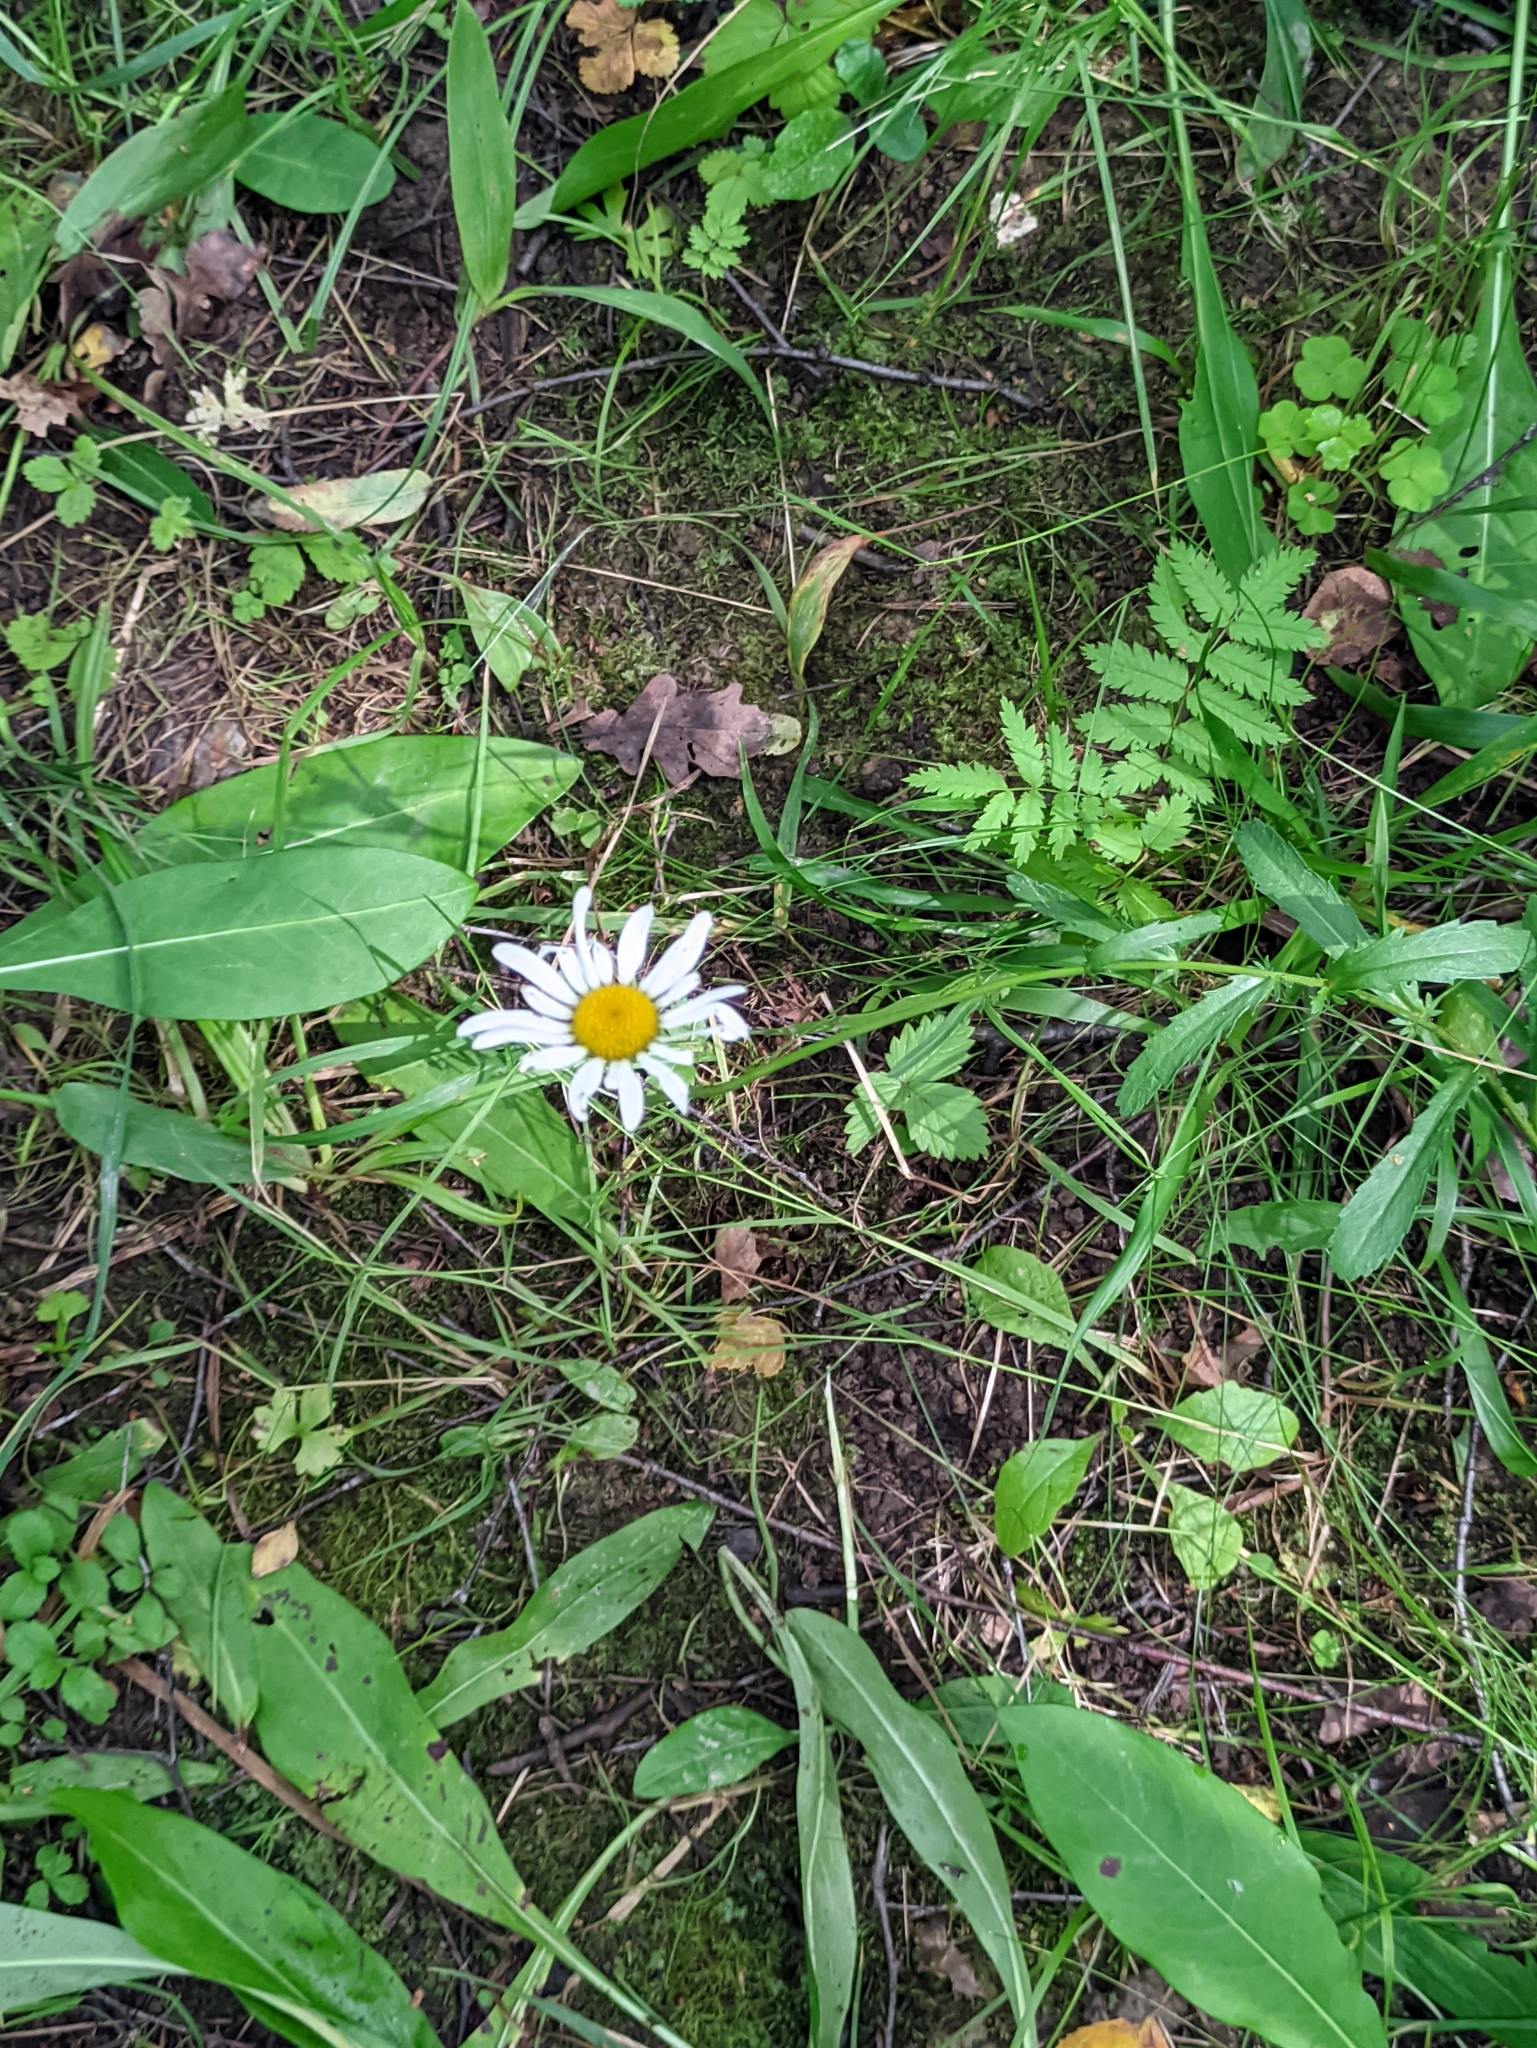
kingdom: Plantae
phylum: Tracheophyta
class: Magnoliopsida
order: Asterales
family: Asteraceae
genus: Leucanthemum
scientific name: Leucanthemum vulgare
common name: Oxeye daisy
